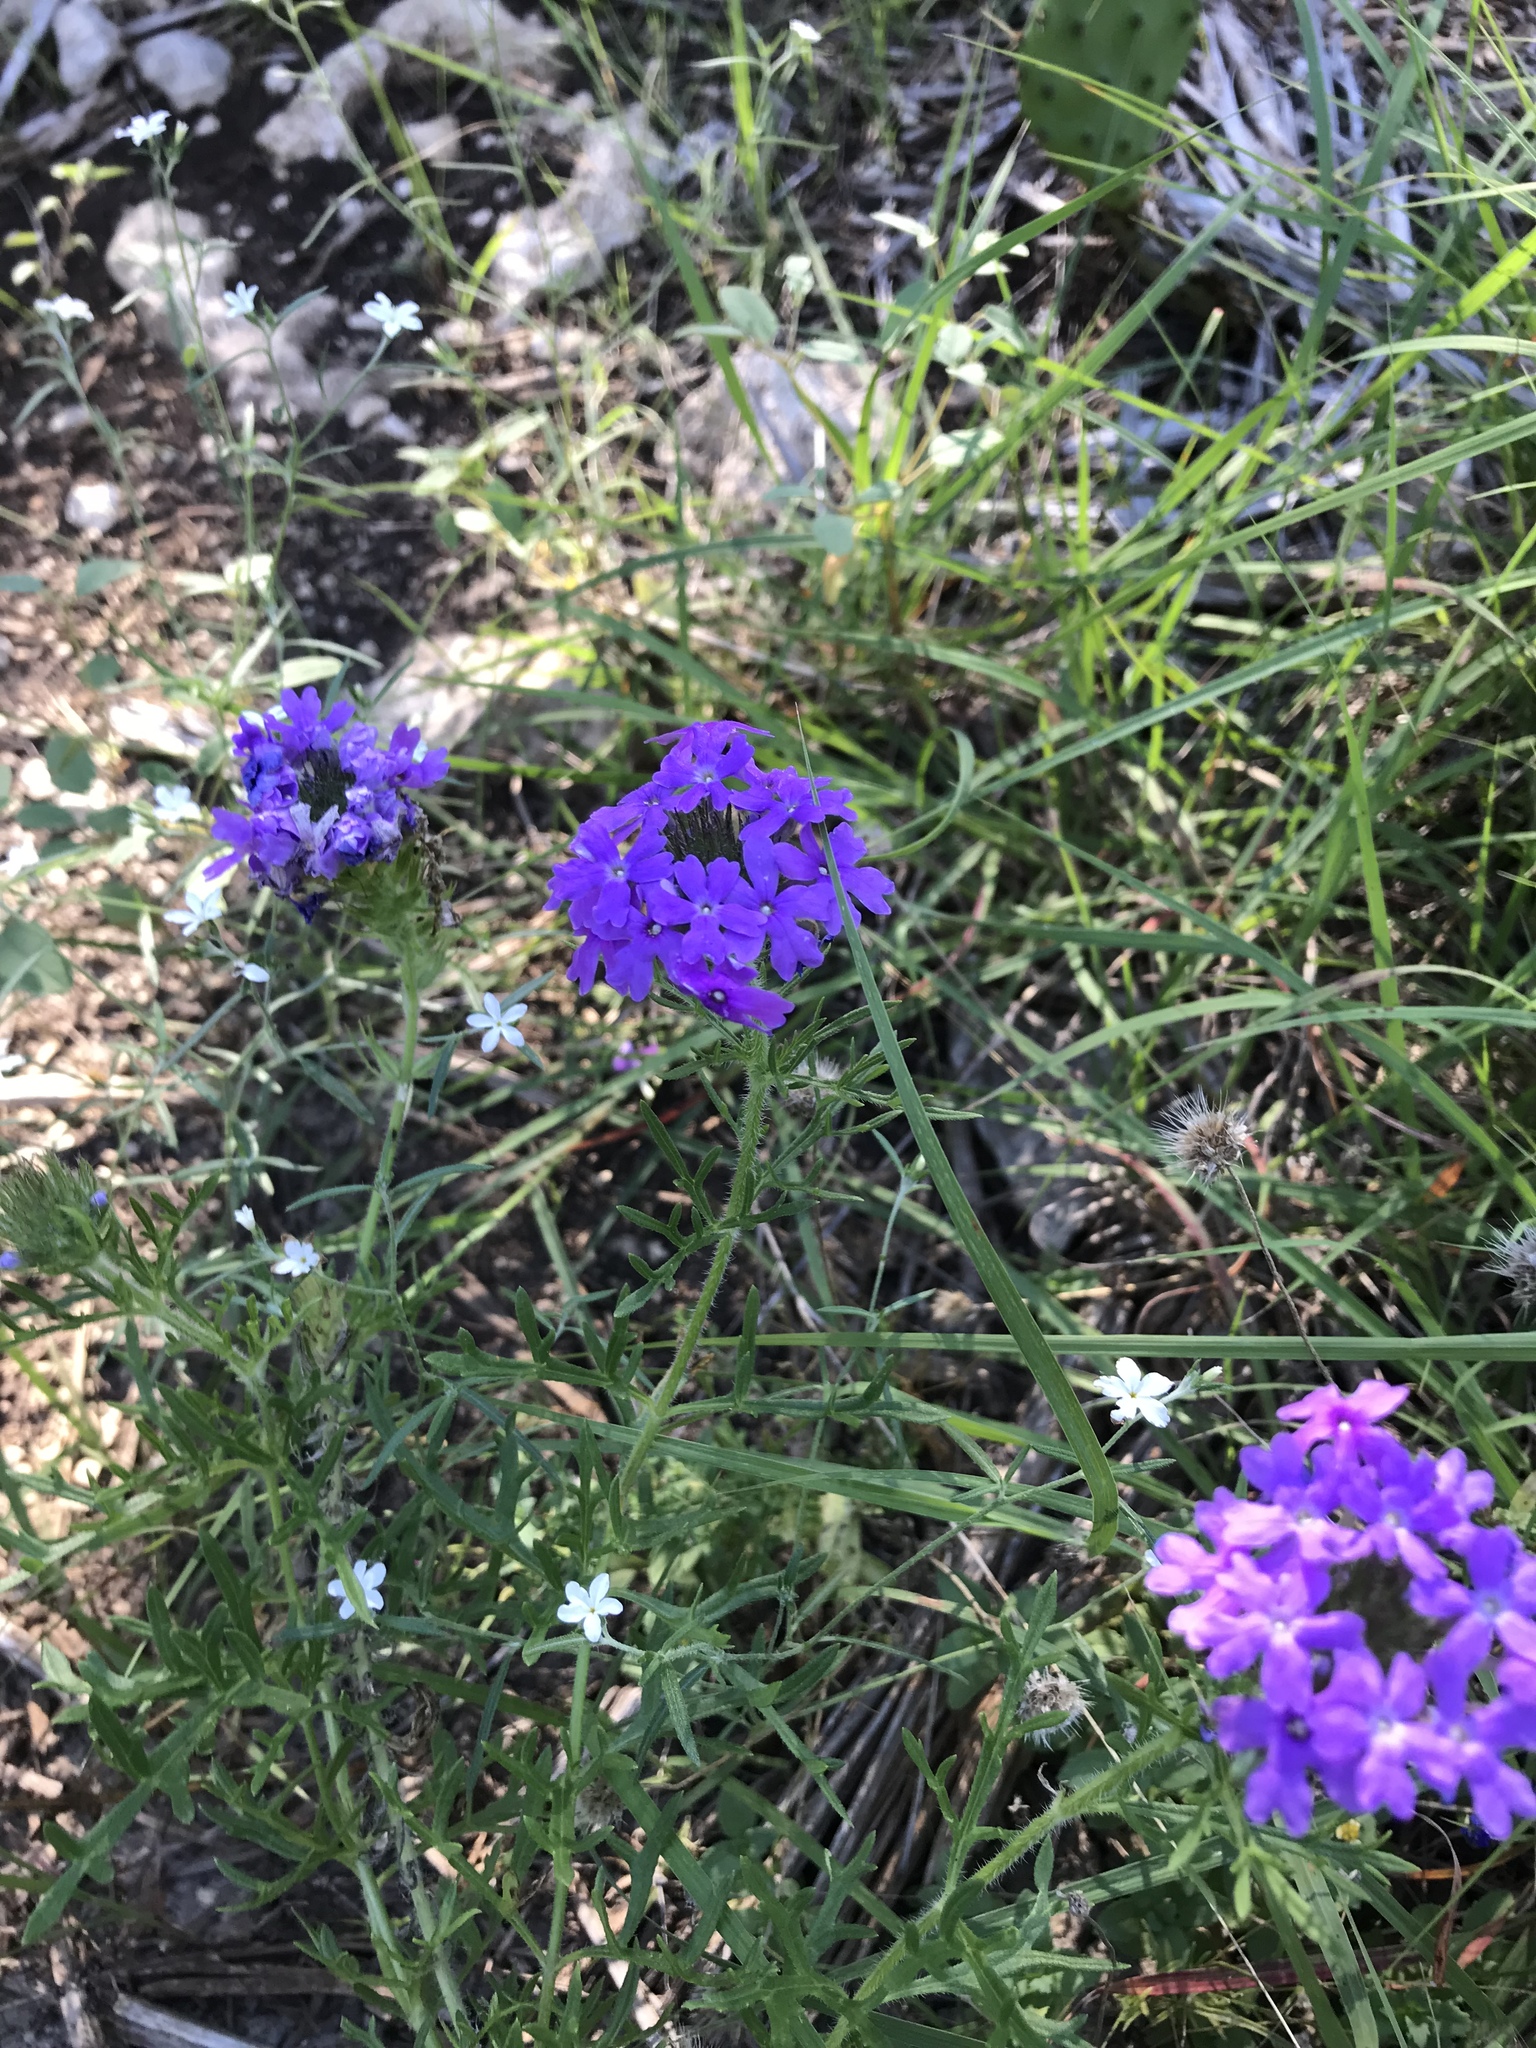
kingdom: Plantae
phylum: Tracheophyta
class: Magnoliopsida
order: Lamiales
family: Verbenaceae
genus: Verbena
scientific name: Verbena bipinnatifida
